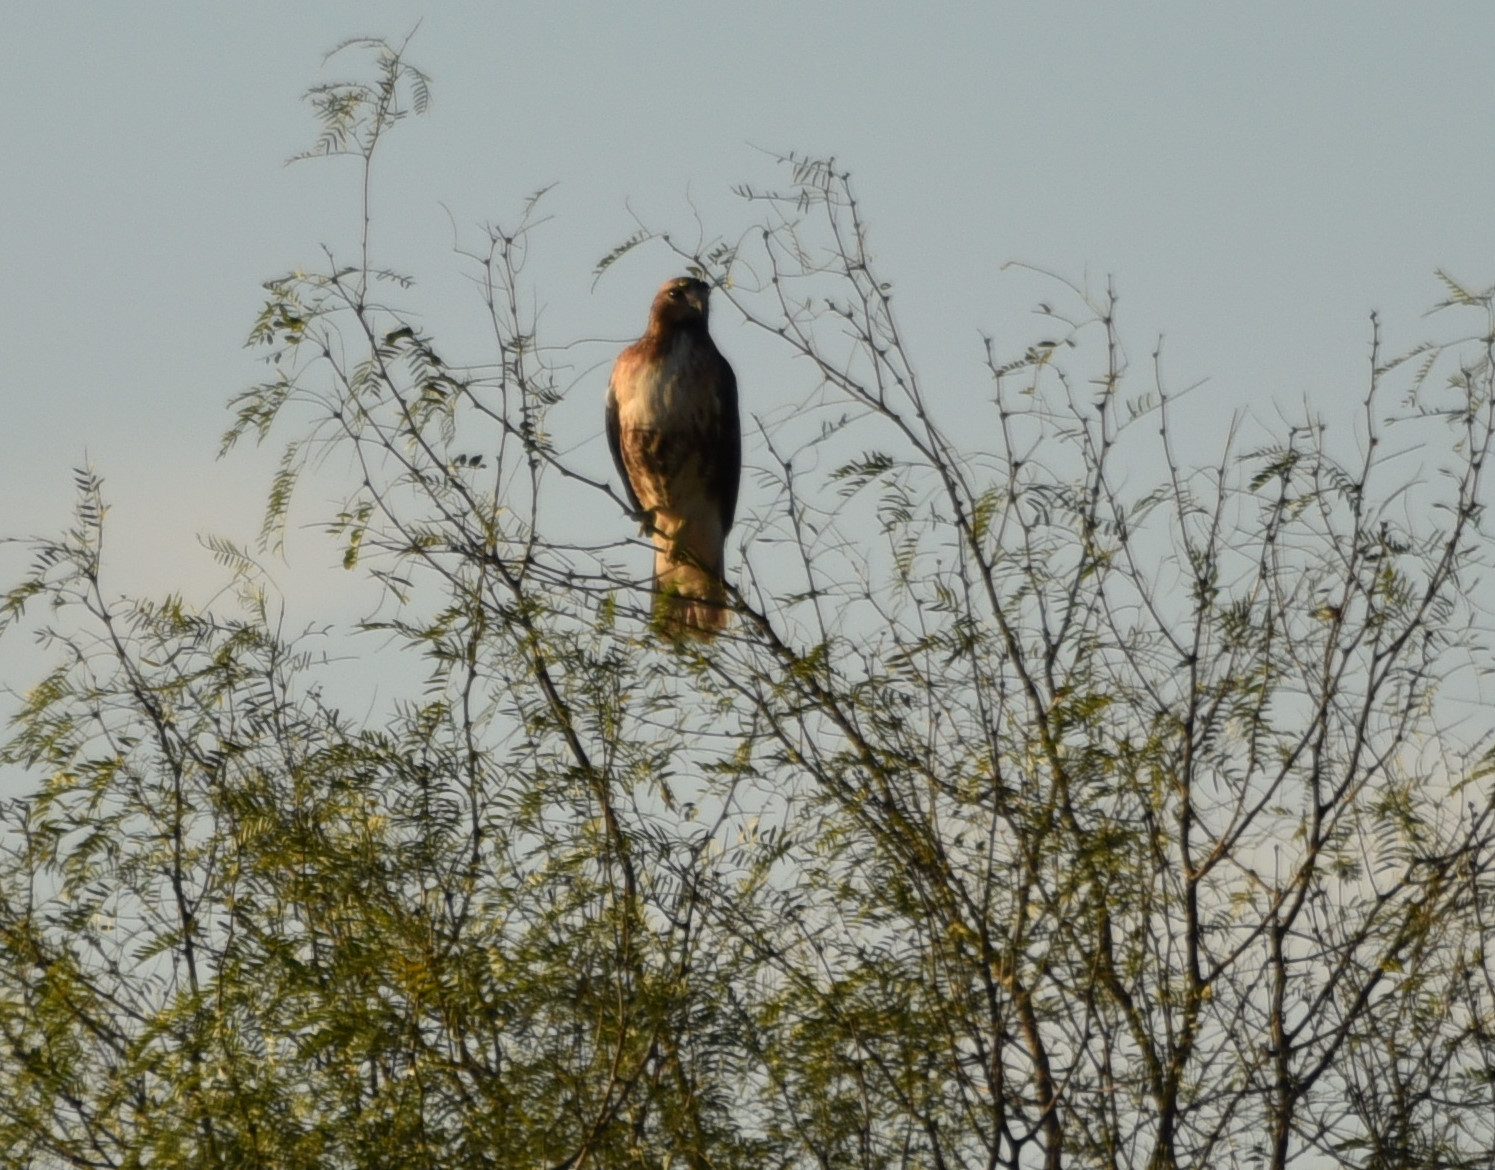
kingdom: Animalia
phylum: Chordata
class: Aves
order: Accipitriformes
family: Accipitridae
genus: Buteo
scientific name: Buteo jamaicensis
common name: Red-tailed hawk
